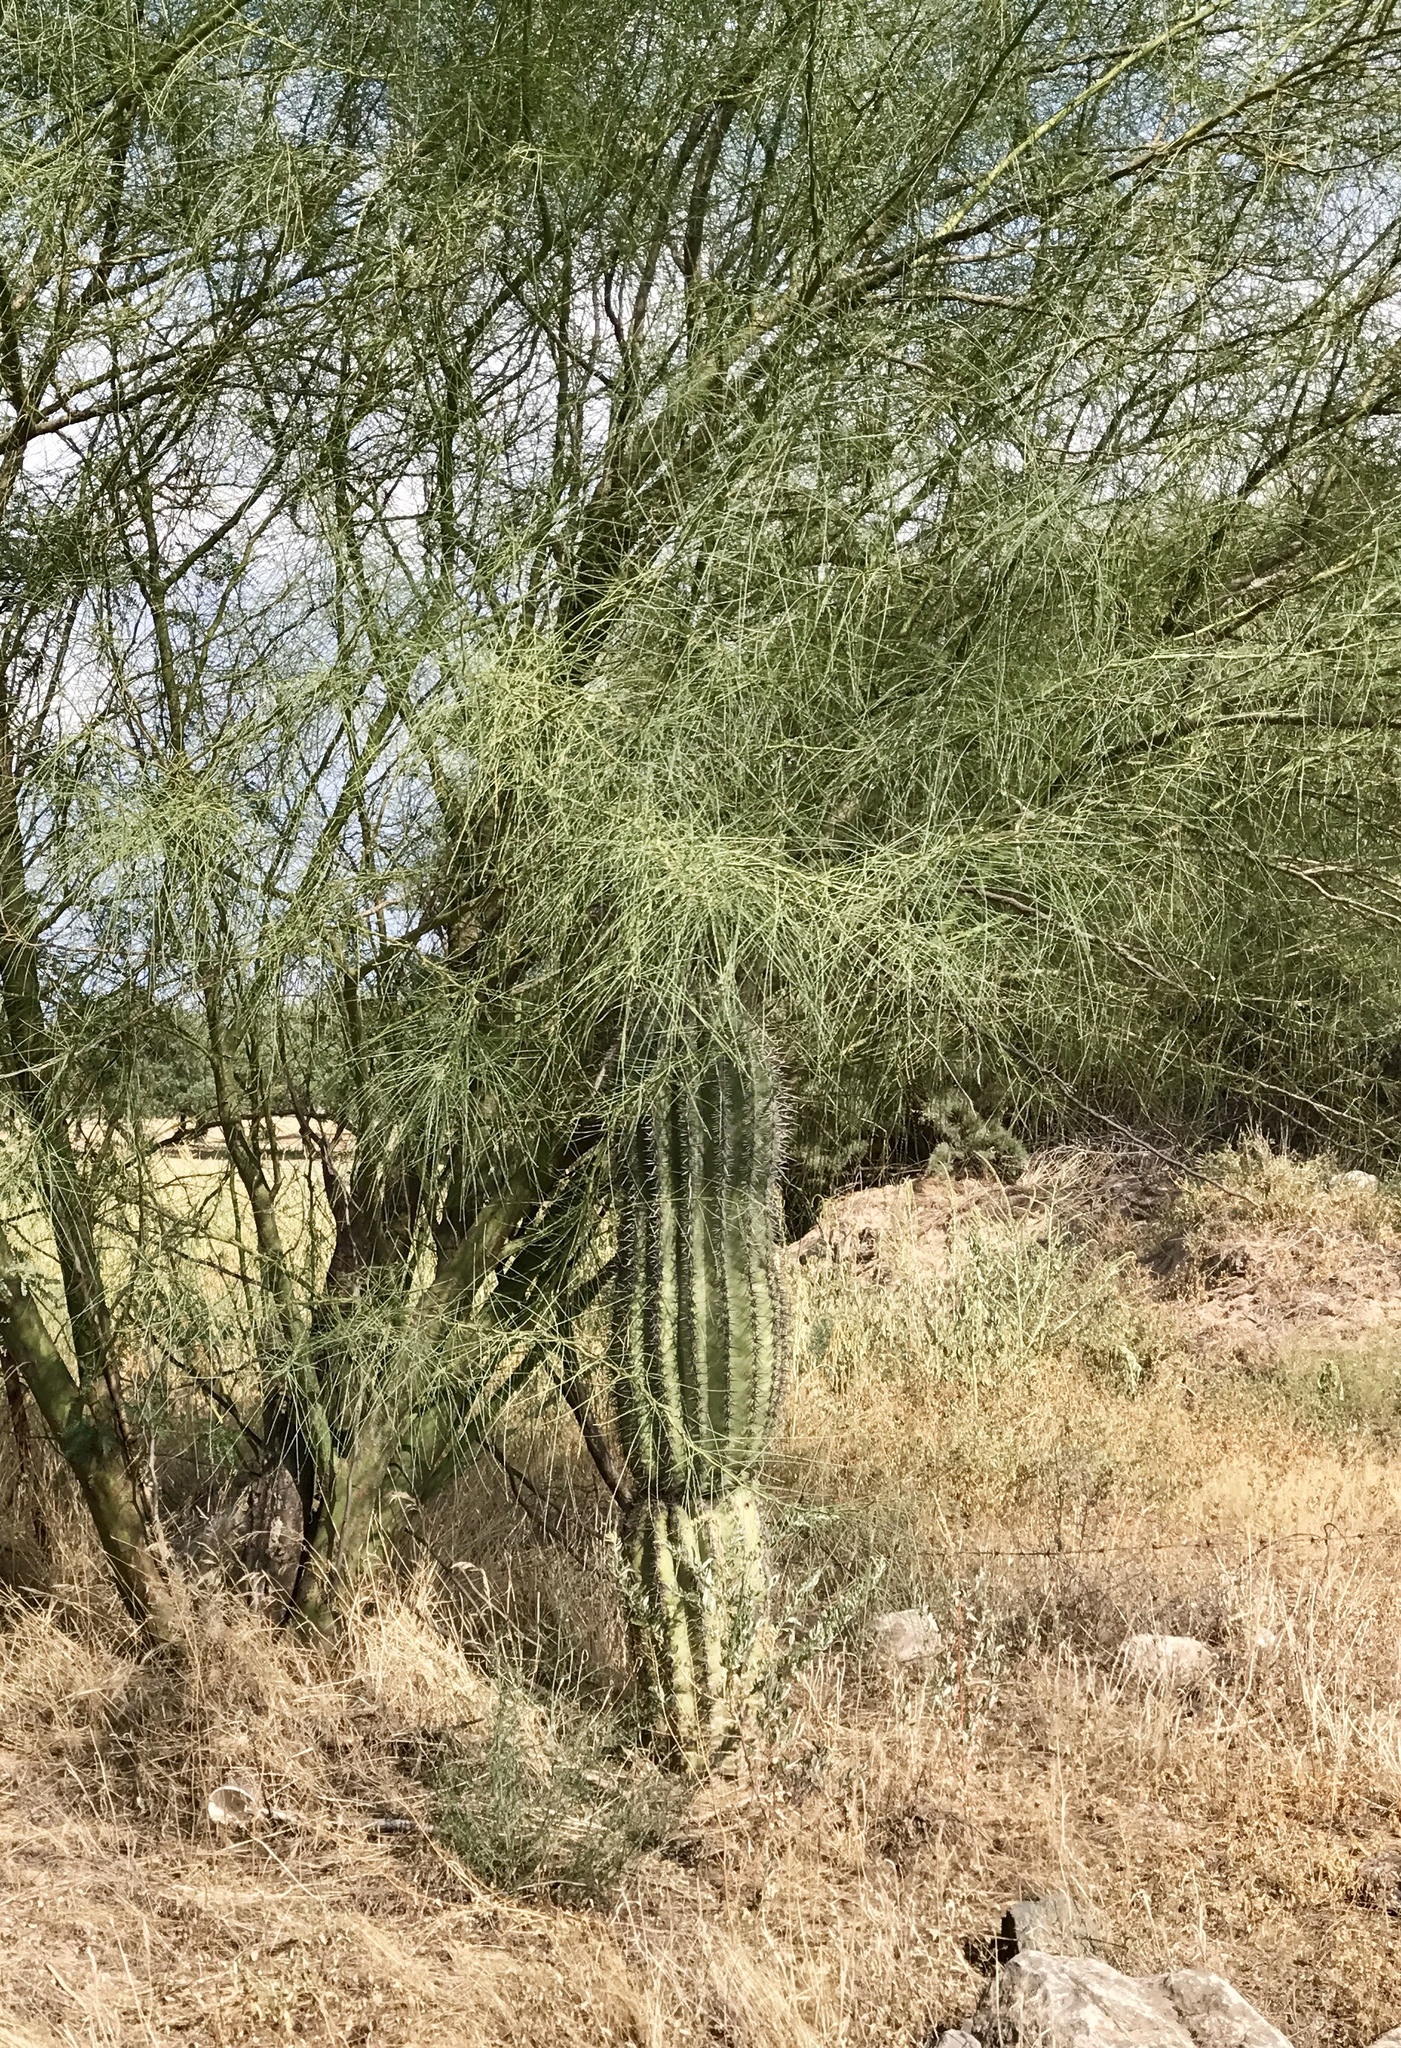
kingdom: Plantae
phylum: Tracheophyta
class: Magnoliopsida
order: Caryophyllales
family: Cactaceae
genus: Carnegiea
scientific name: Carnegiea gigantea
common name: Saguaro
